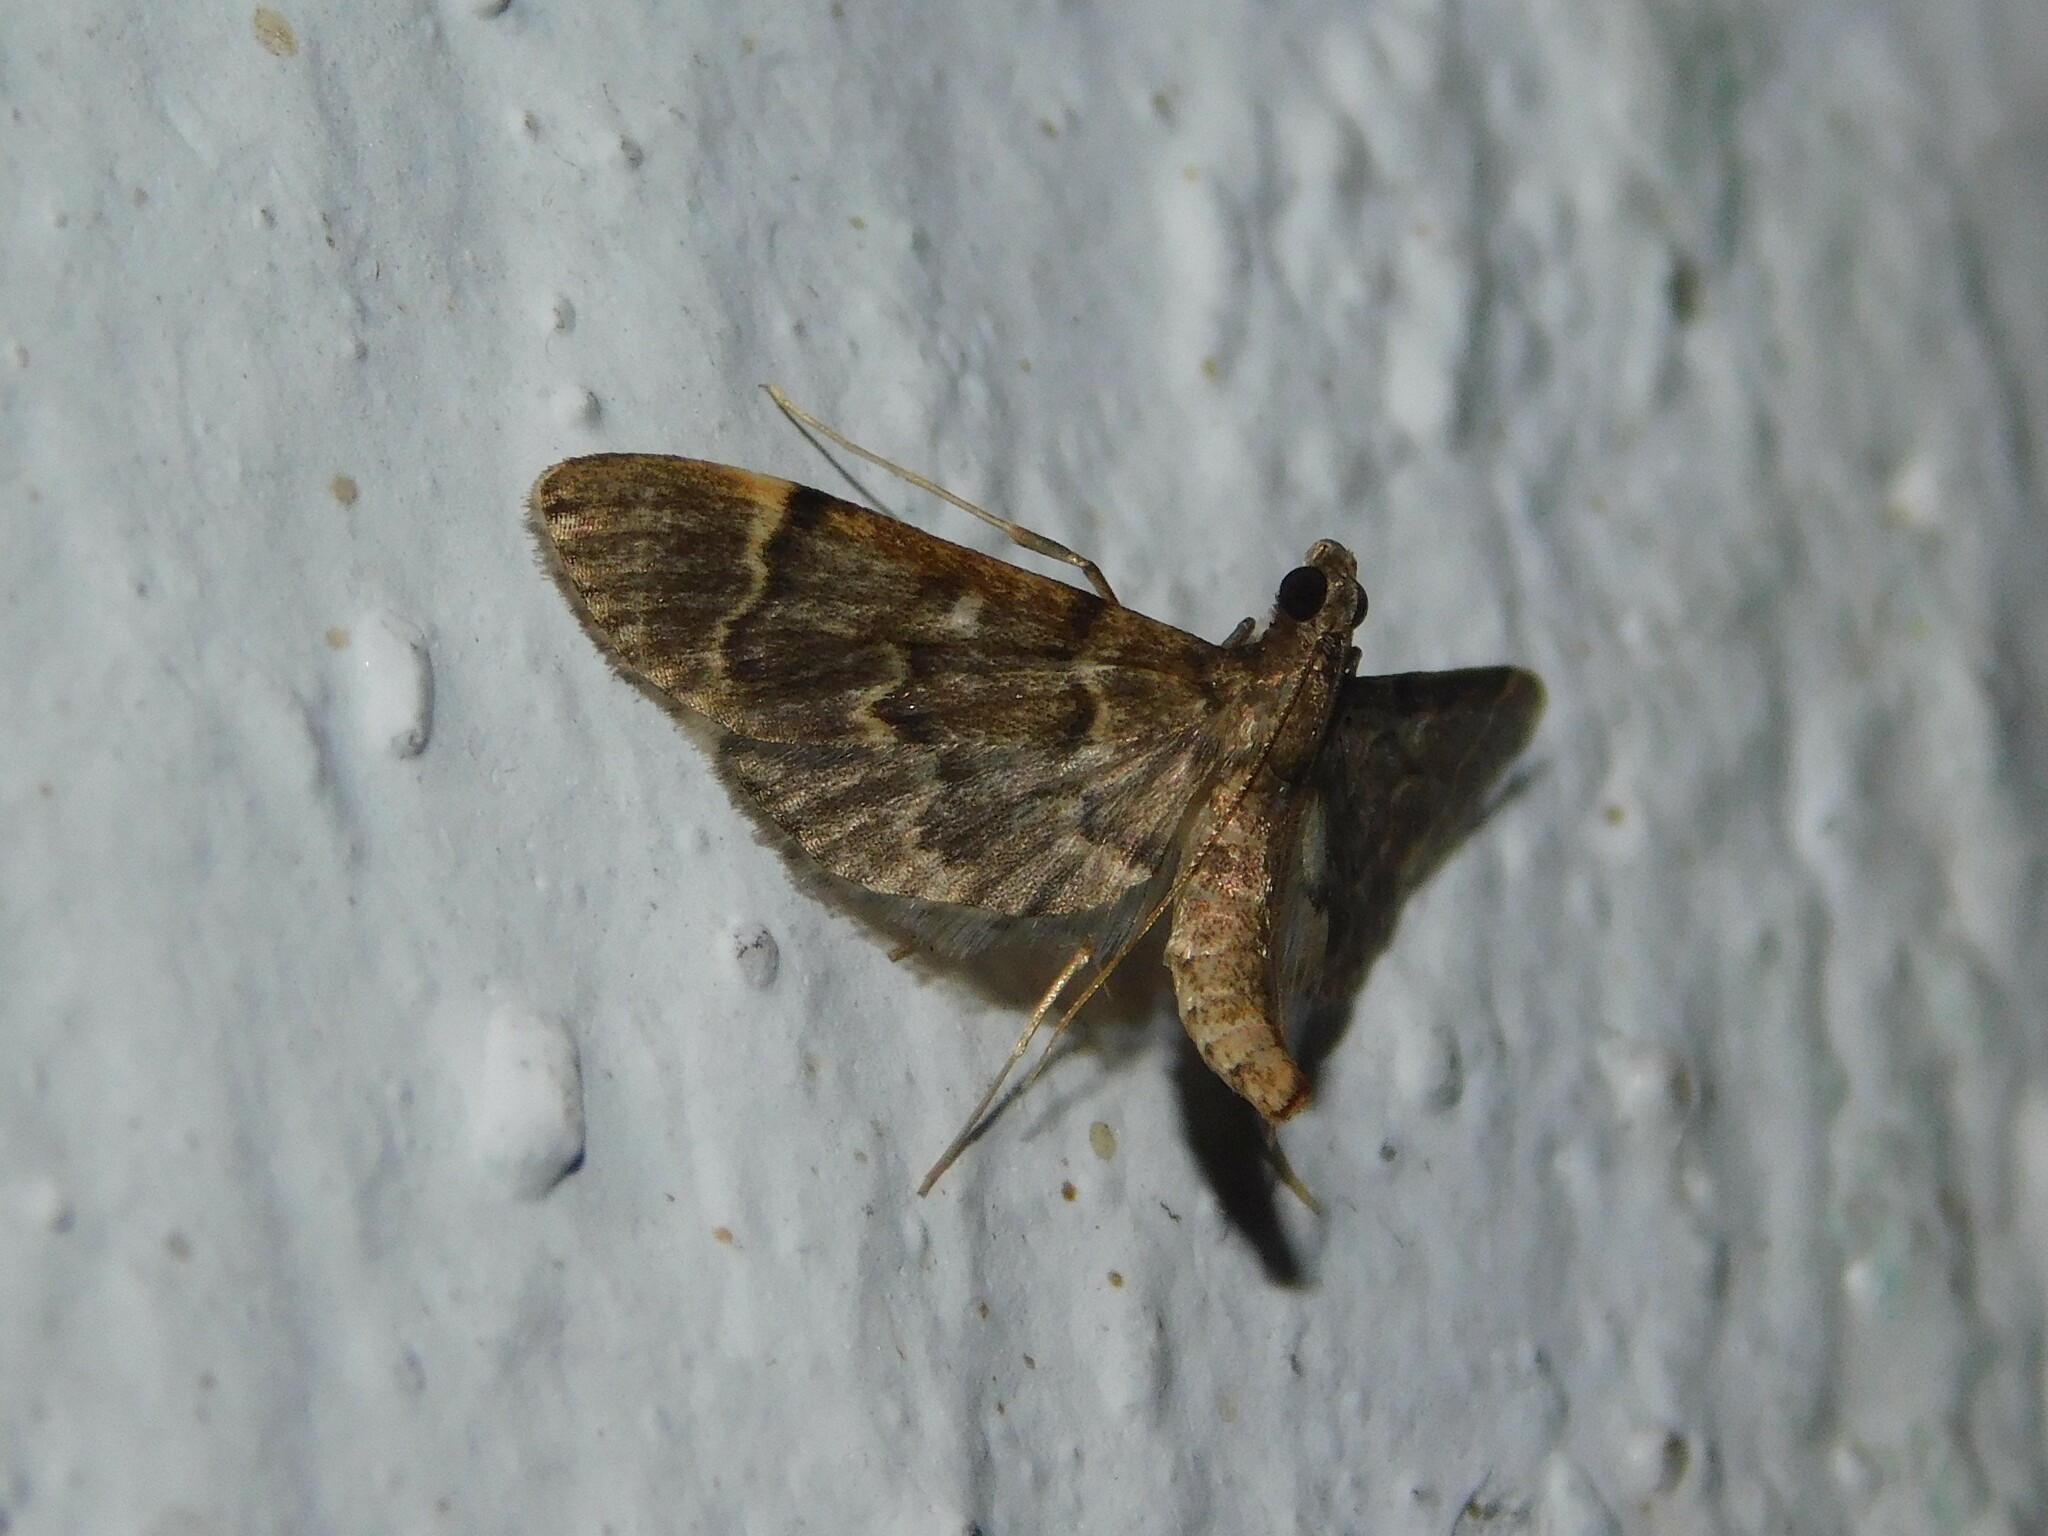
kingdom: Animalia
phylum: Arthropoda
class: Insecta
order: Lepidoptera
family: Crambidae
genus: Duponchelia
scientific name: Duponchelia lanceolalis
